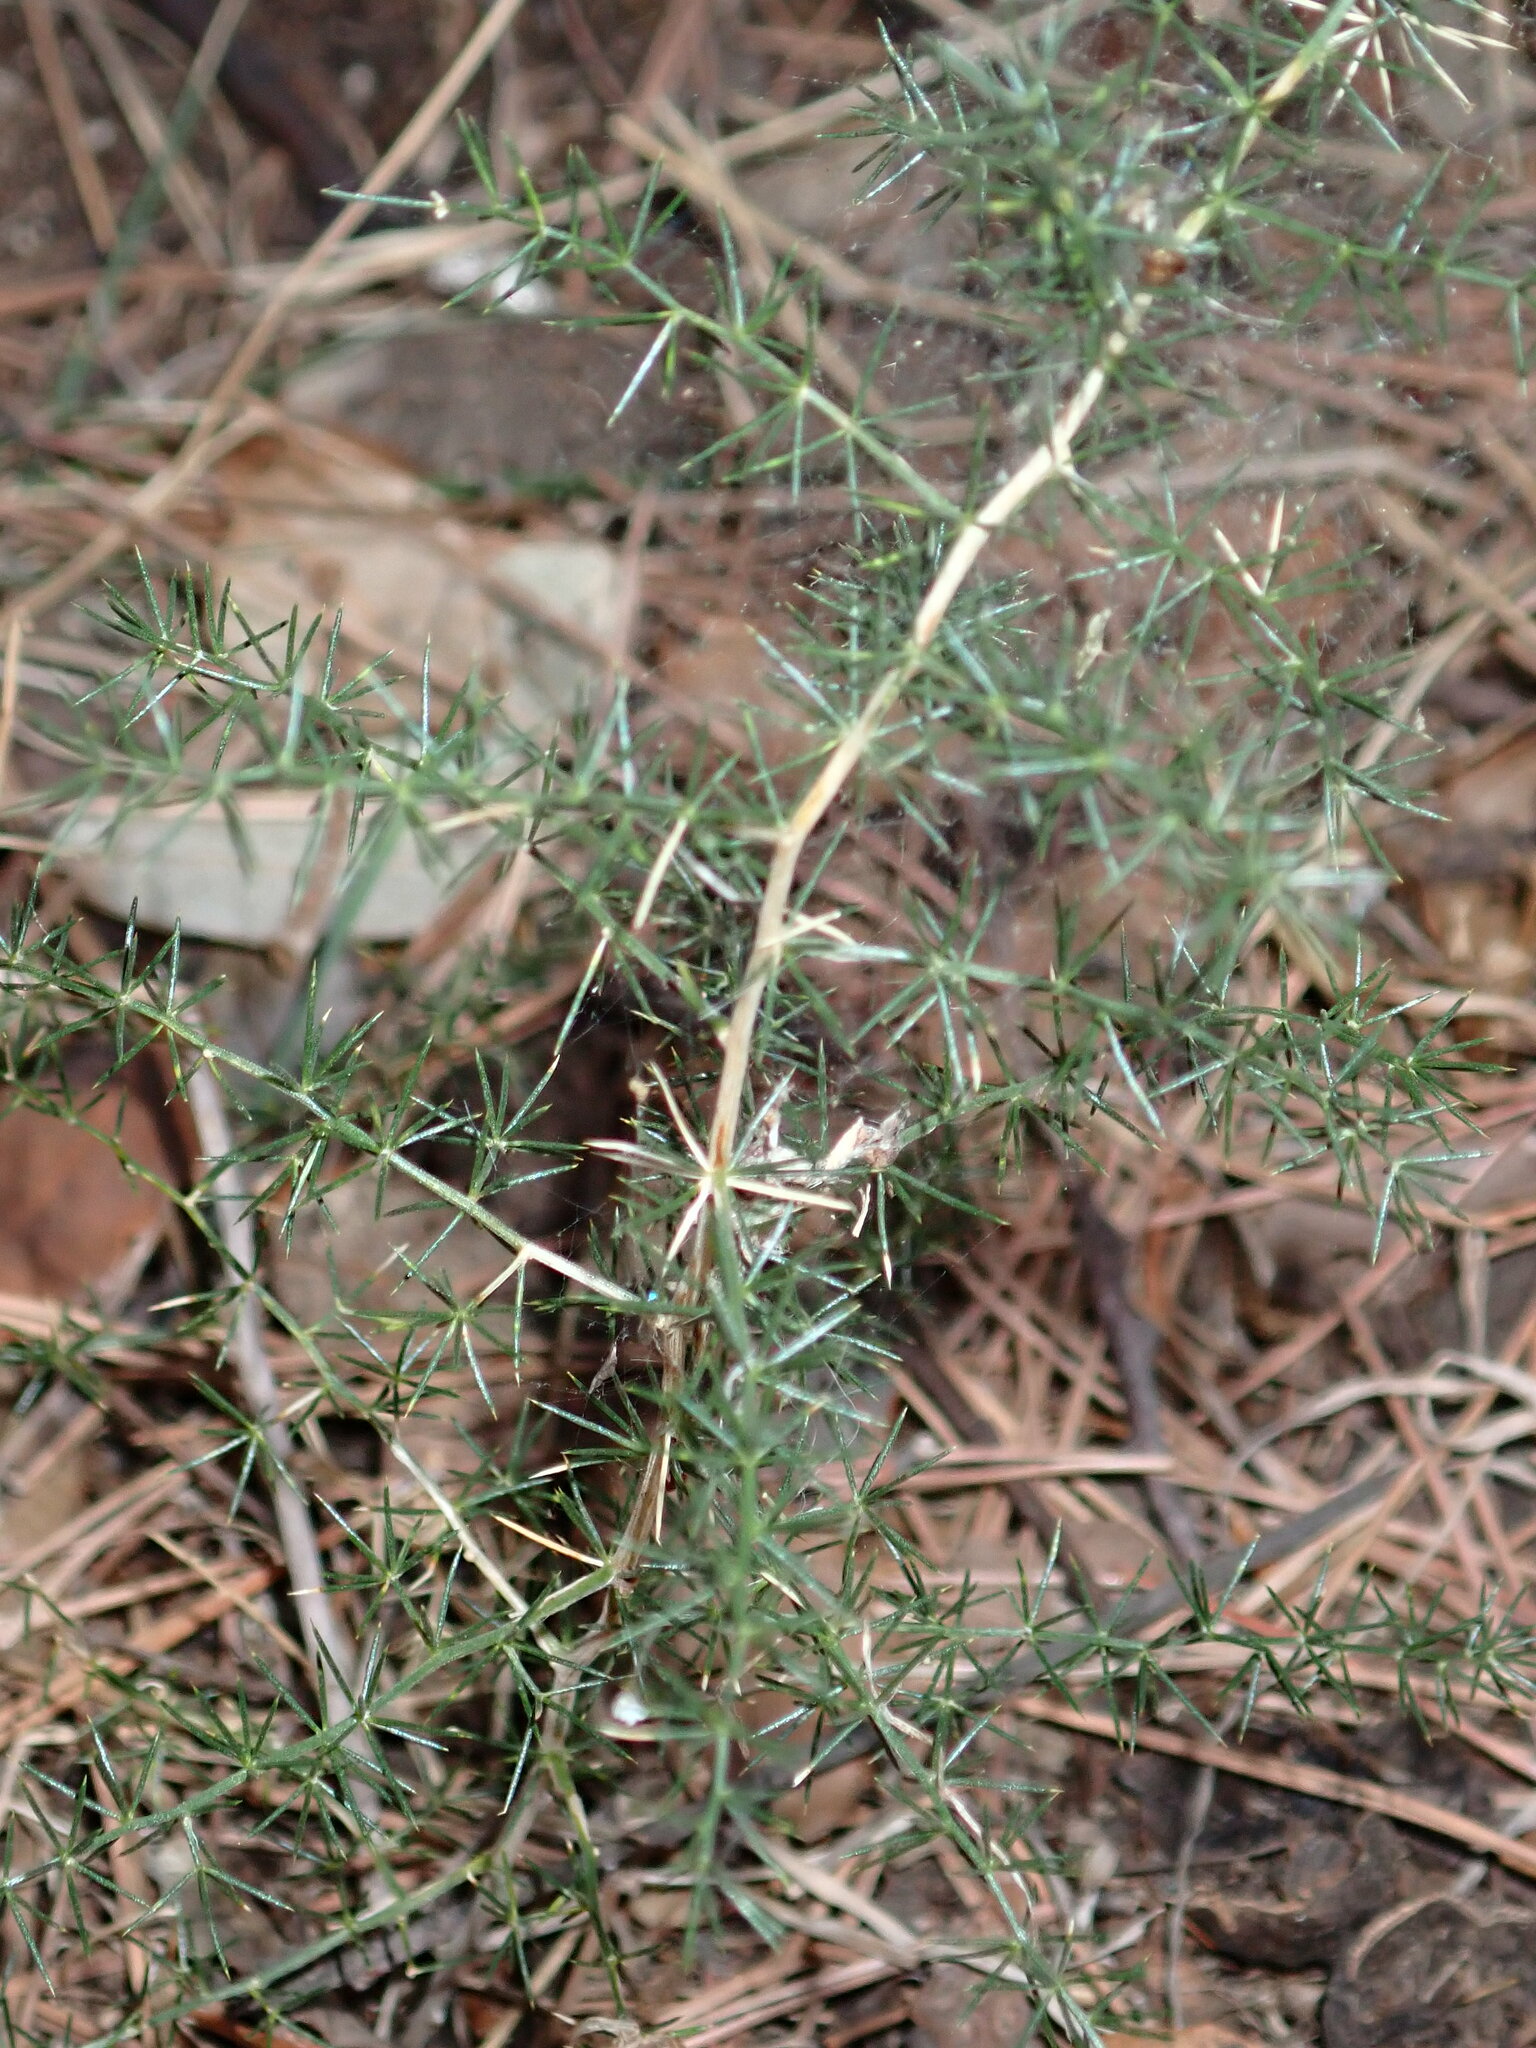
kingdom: Plantae
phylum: Tracheophyta
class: Liliopsida
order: Asparagales
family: Asparagaceae
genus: Asparagus
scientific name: Asparagus acutifolius
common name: Wild asparagus
